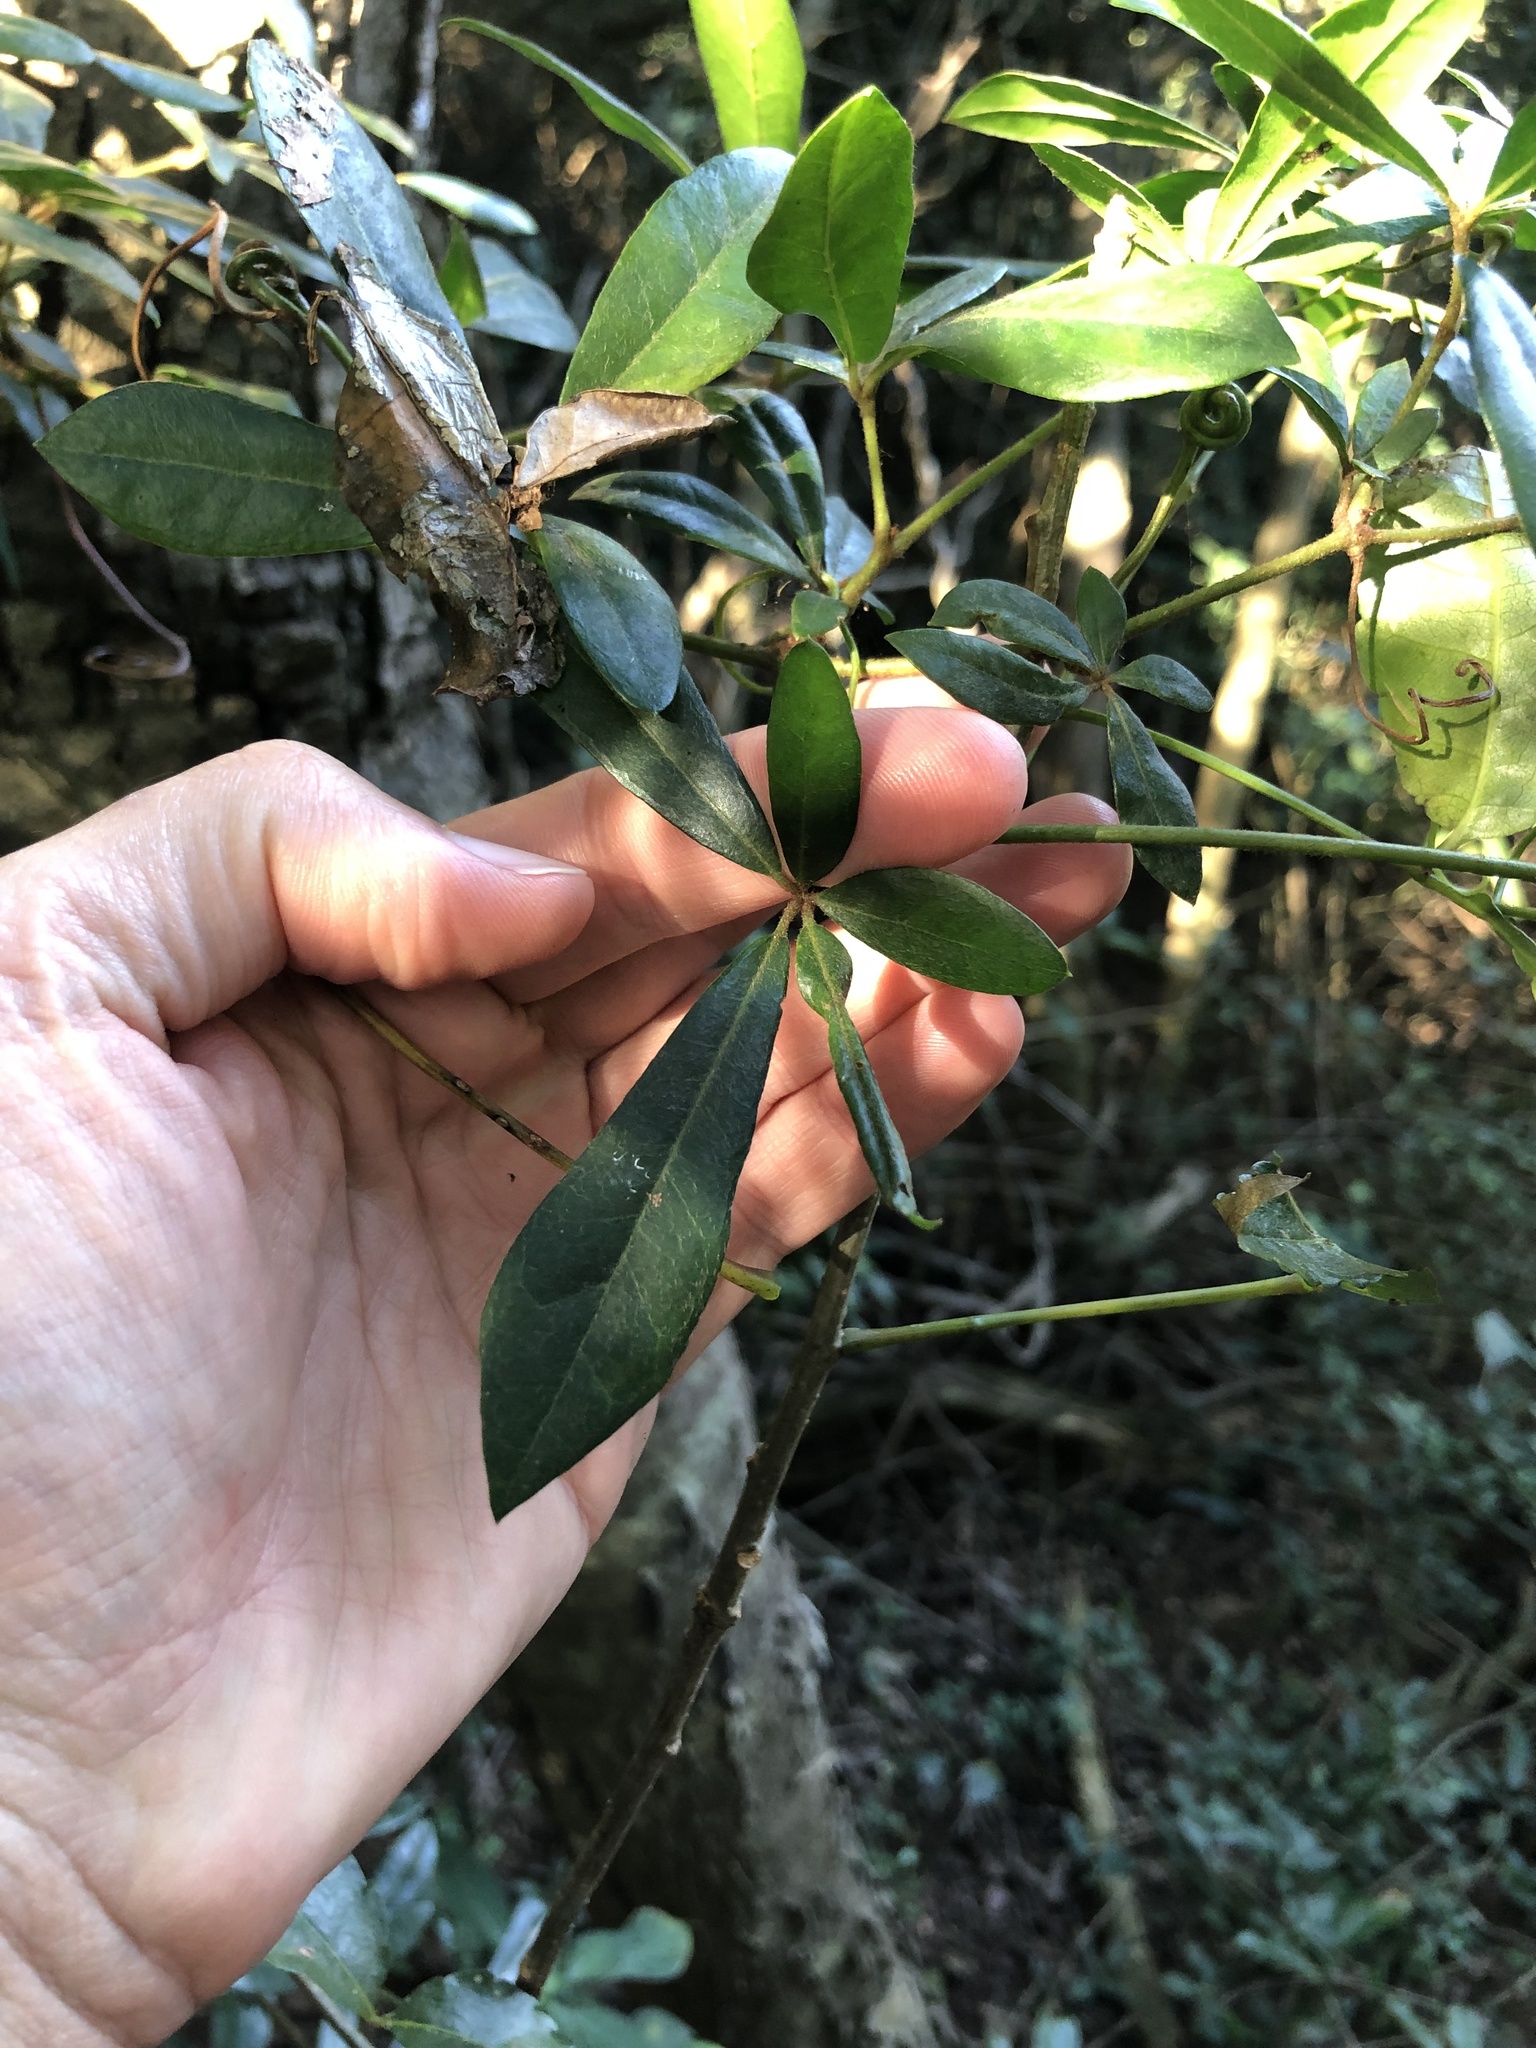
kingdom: Plantae
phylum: Tracheophyta
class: Magnoliopsida
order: Vitales
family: Vitaceae
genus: Rhoicissus
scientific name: Rhoicissus digitata
